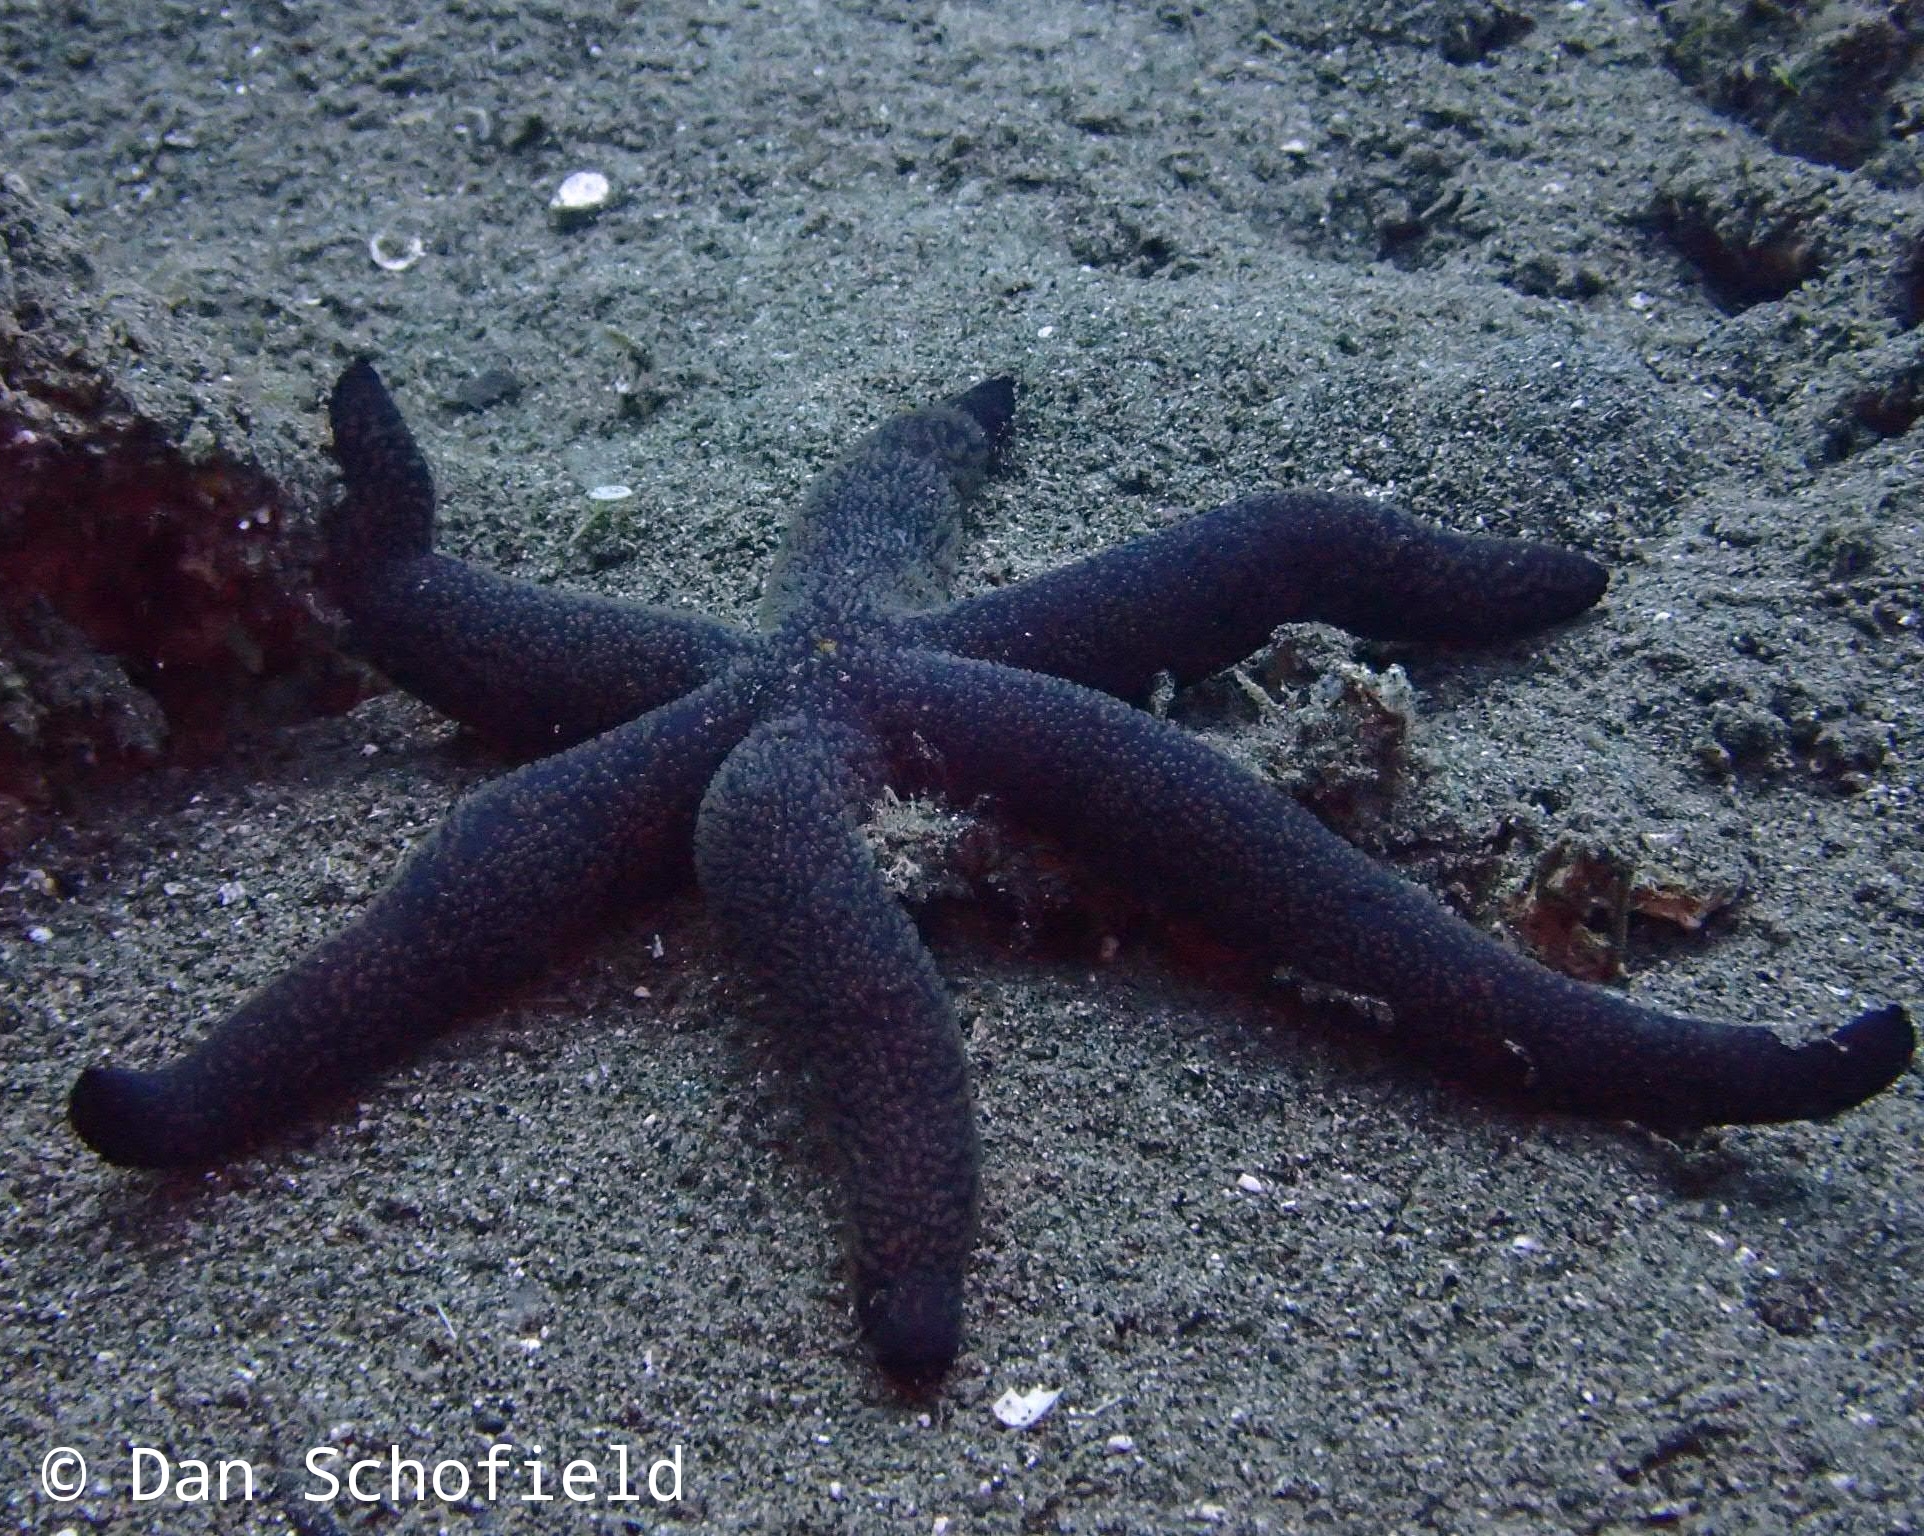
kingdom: Animalia
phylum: Echinodermata
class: Asteroidea
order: Spinulosida
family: Echinasteridae
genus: Echinaster
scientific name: Echinaster luzonicus
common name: Luzon seastar
